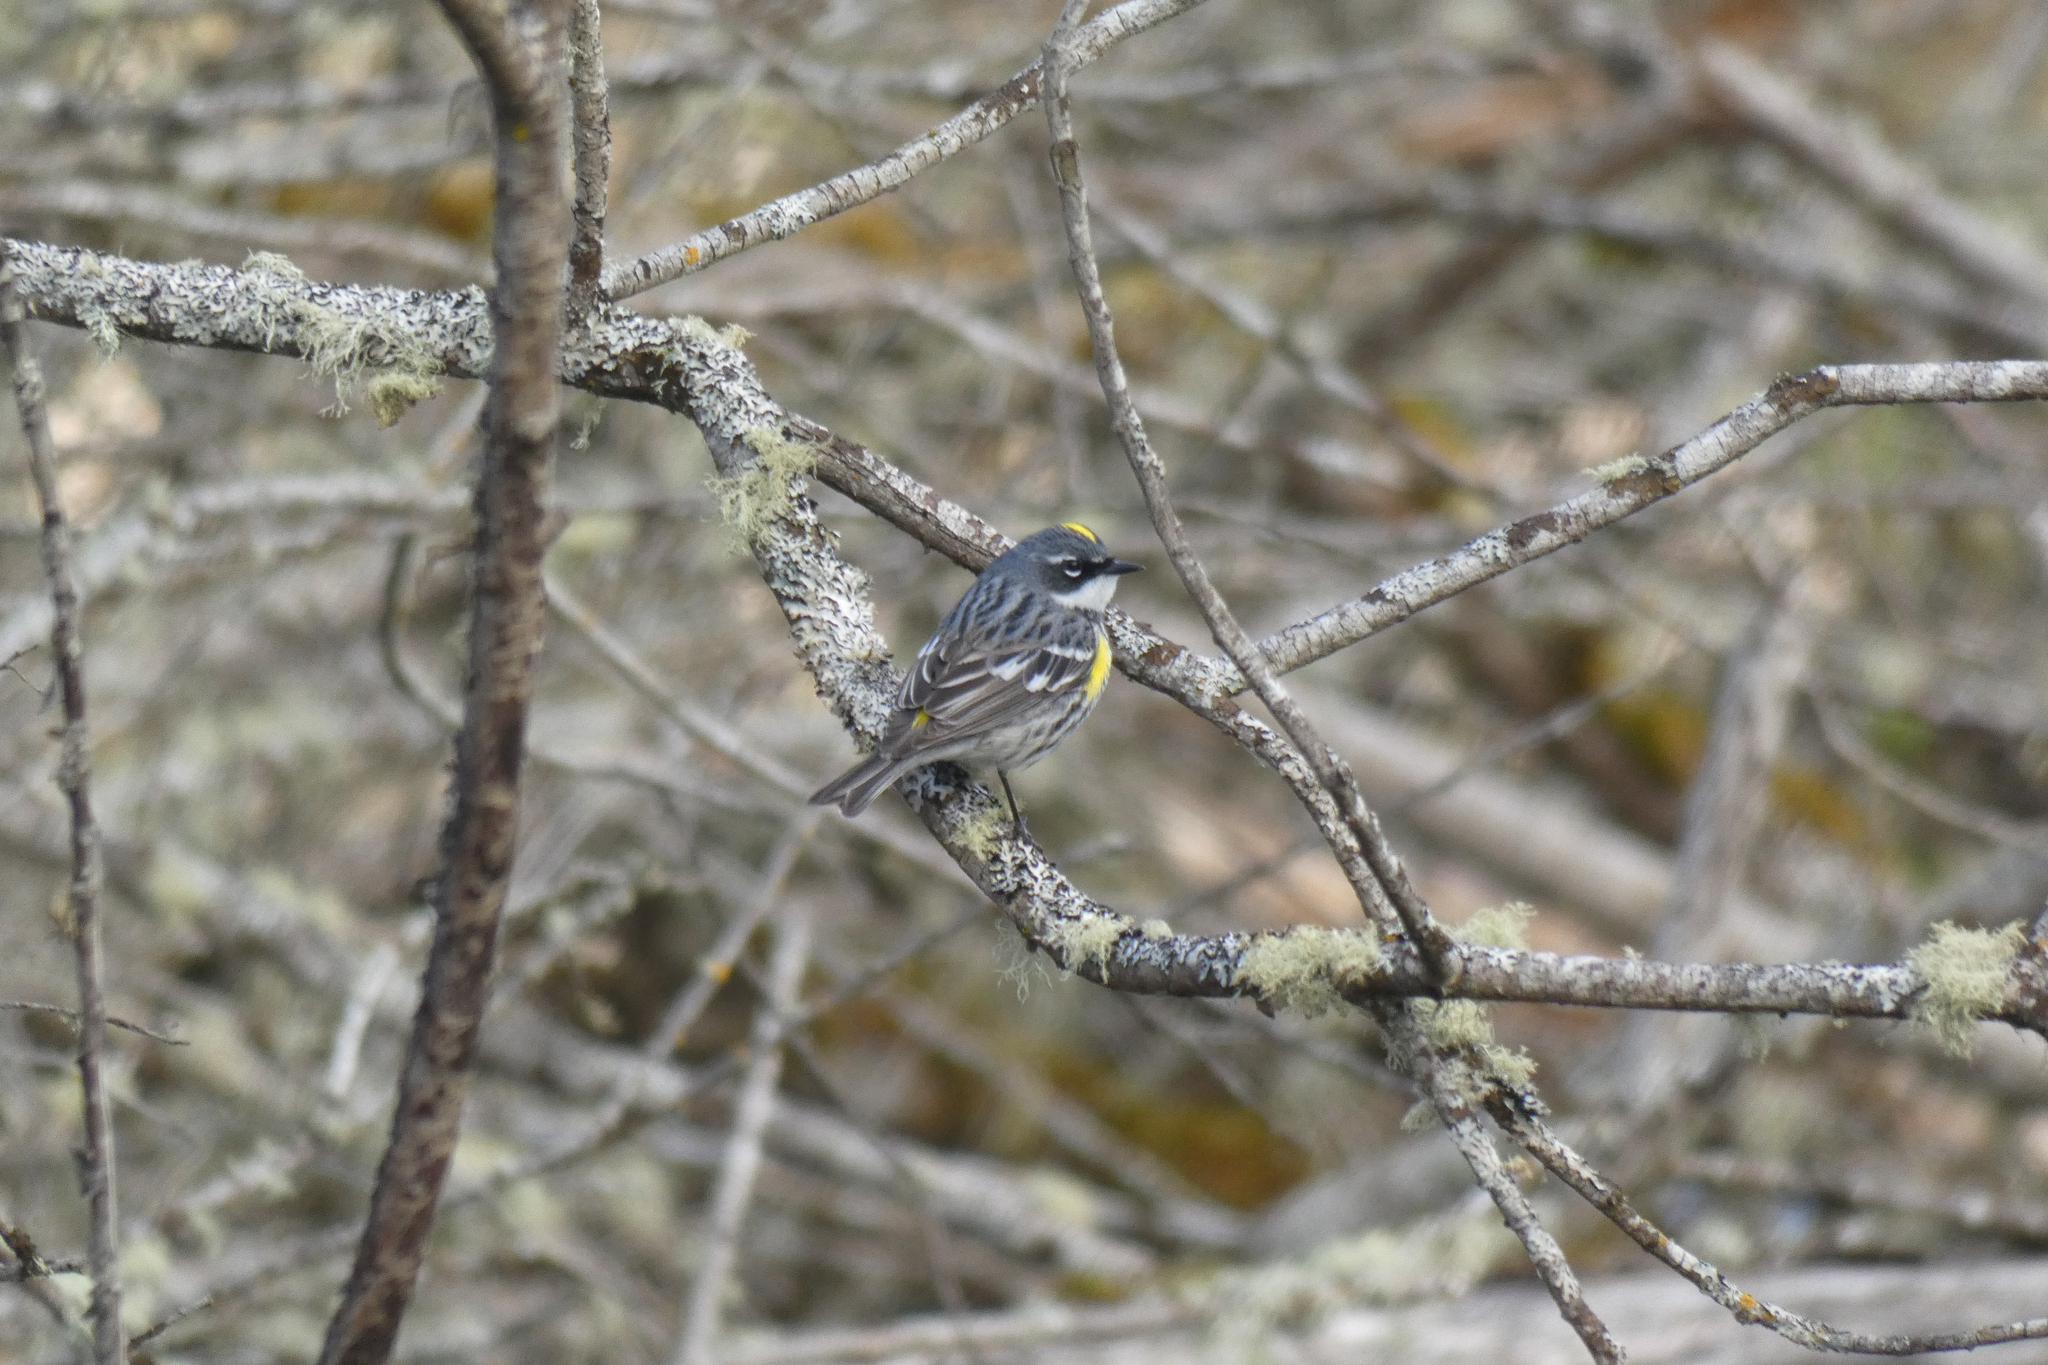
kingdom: Animalia
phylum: Chordata
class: Aves
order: Passeriformes
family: Parulidae
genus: Setophaga
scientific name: Setophaga coronata
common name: Myrtle warbler
